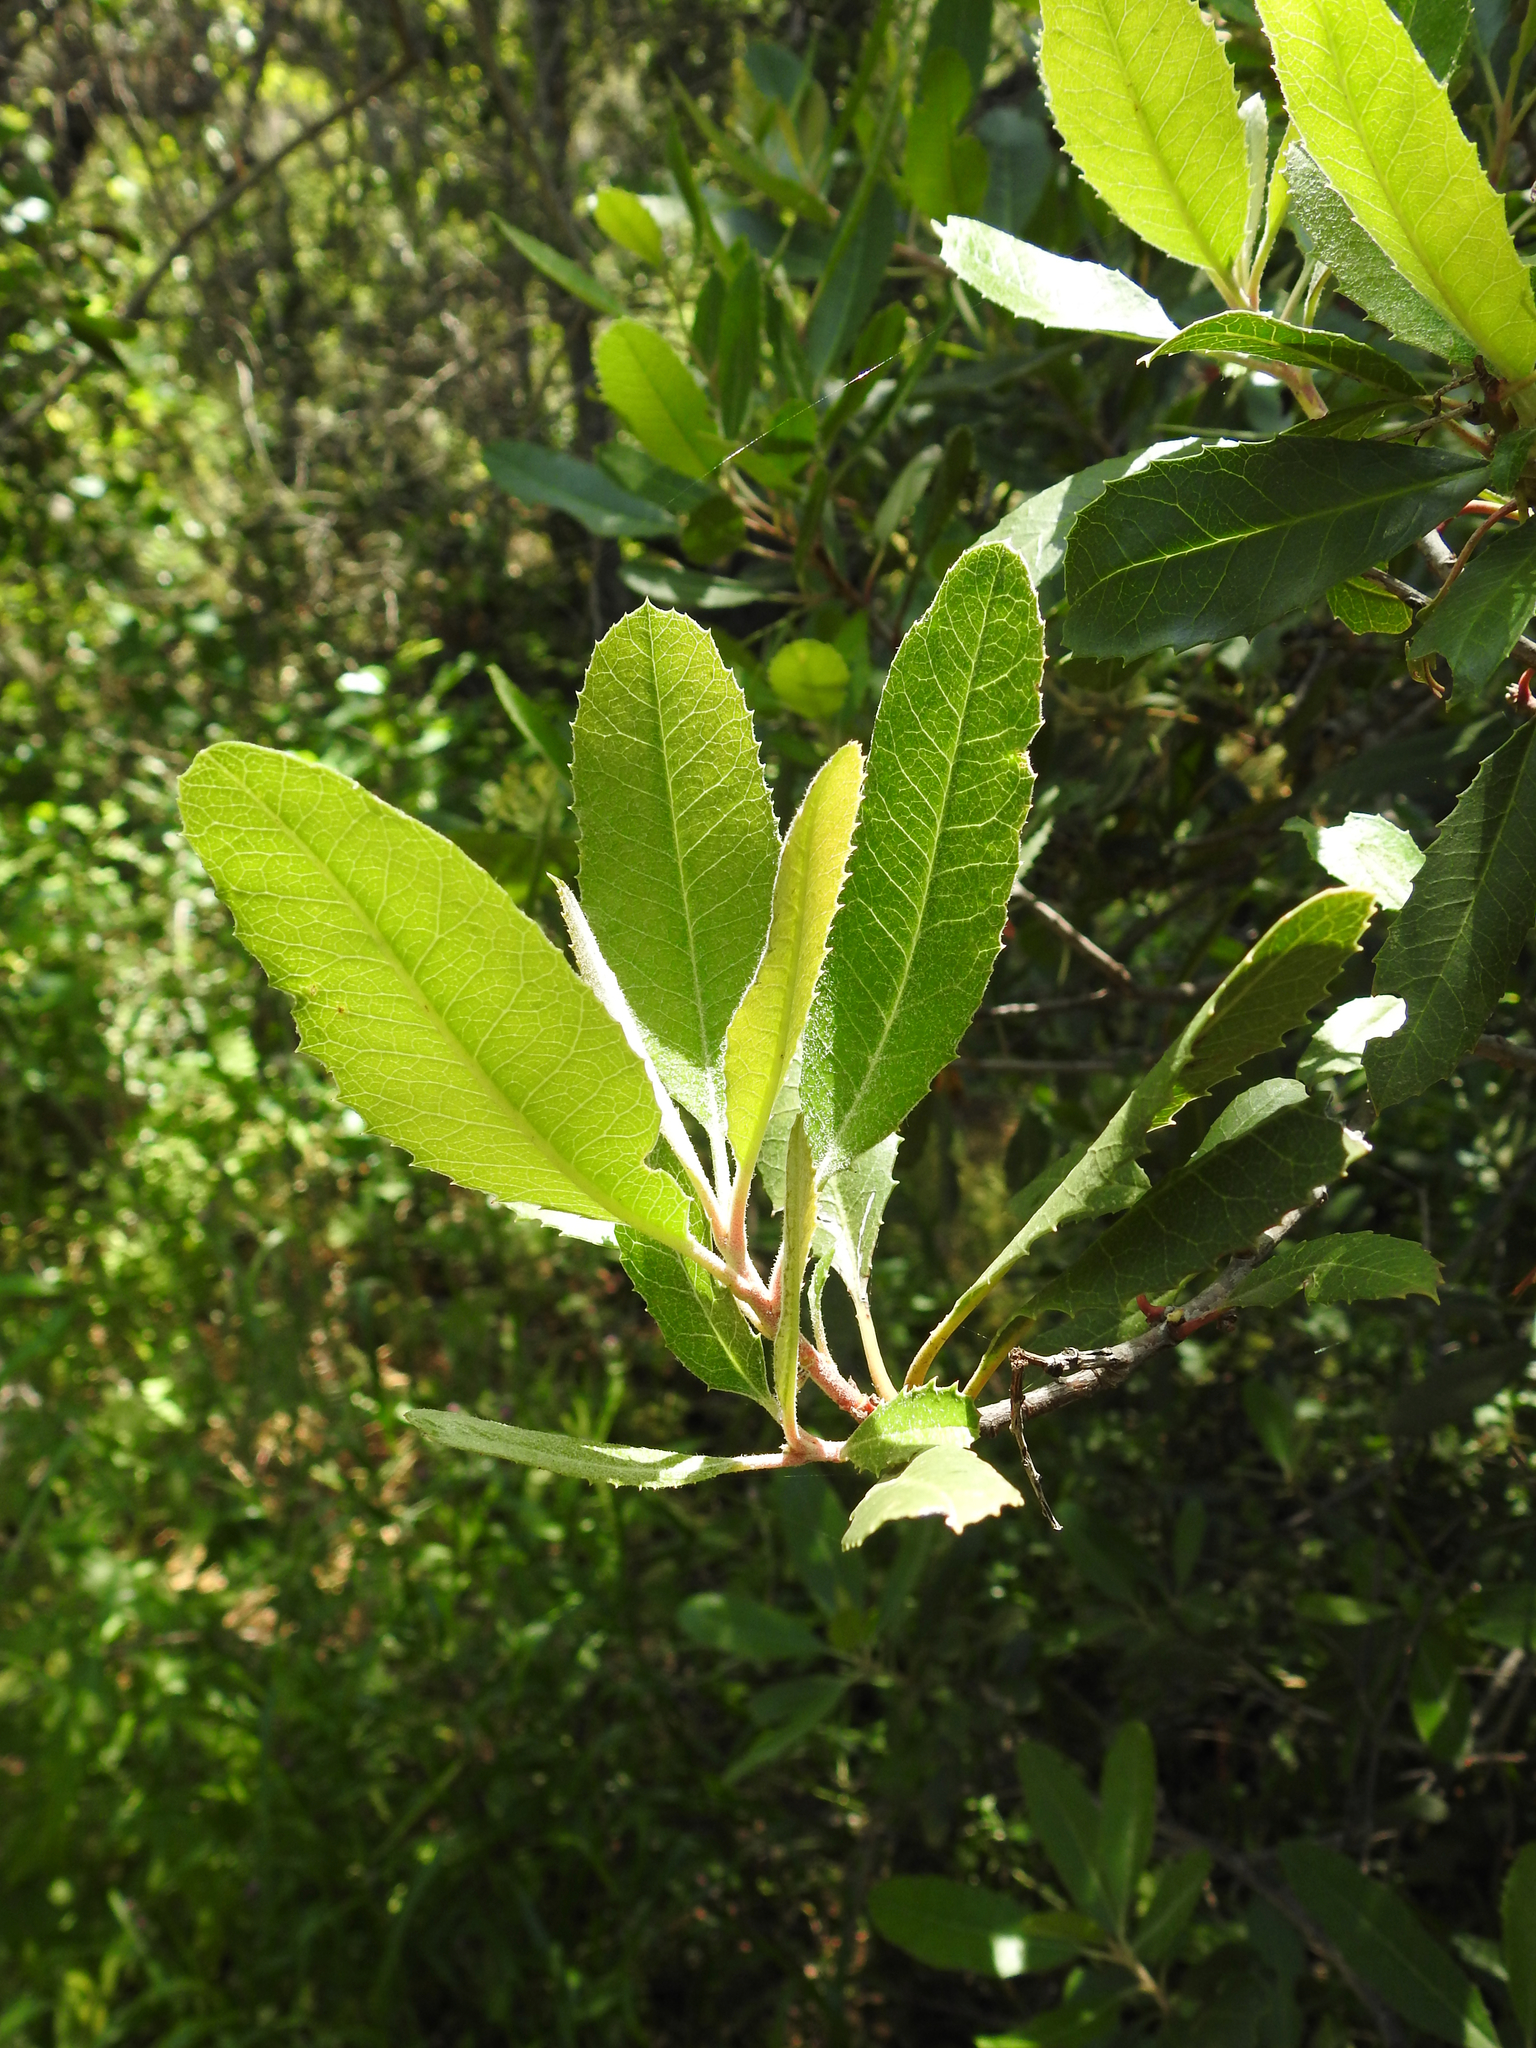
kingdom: Plantae
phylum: Tracheophyta
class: Magnoliopsida
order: Rosales
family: Rosaceae
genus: Heteromeles
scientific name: Heteromeles arbutifolia
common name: California-holly
